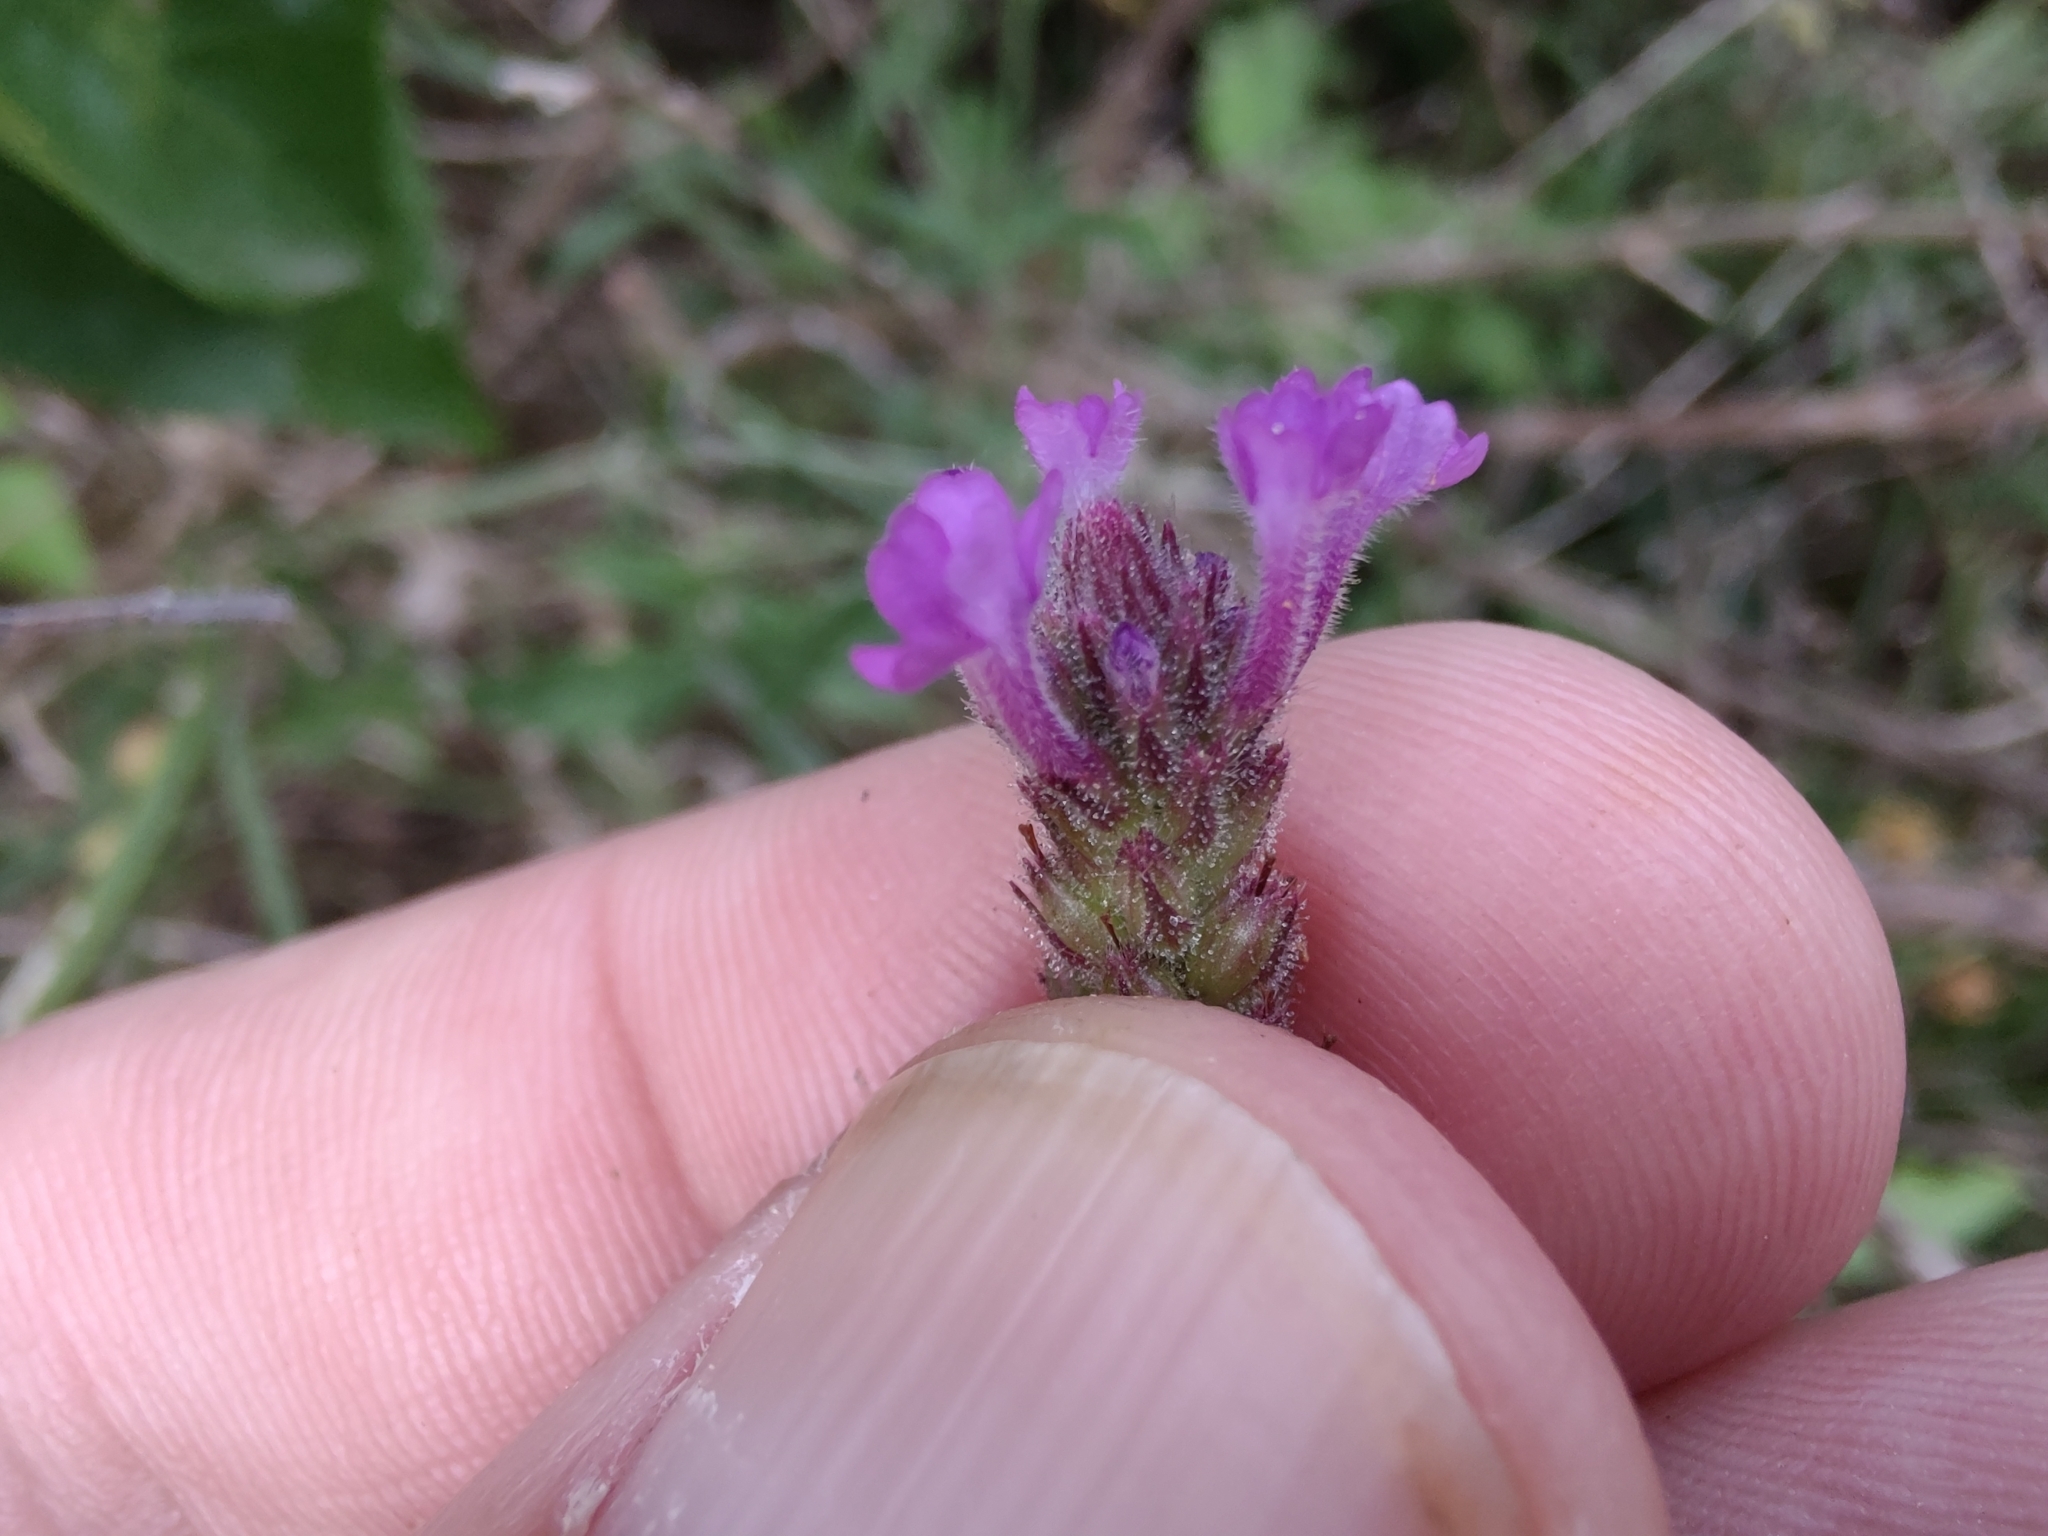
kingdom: Plantae
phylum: Tracheophyta
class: Magnoliopsida
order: Lamiales
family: Verbenaceae
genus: Verbena
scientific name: Verbena litoralis
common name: Seashore vervain
